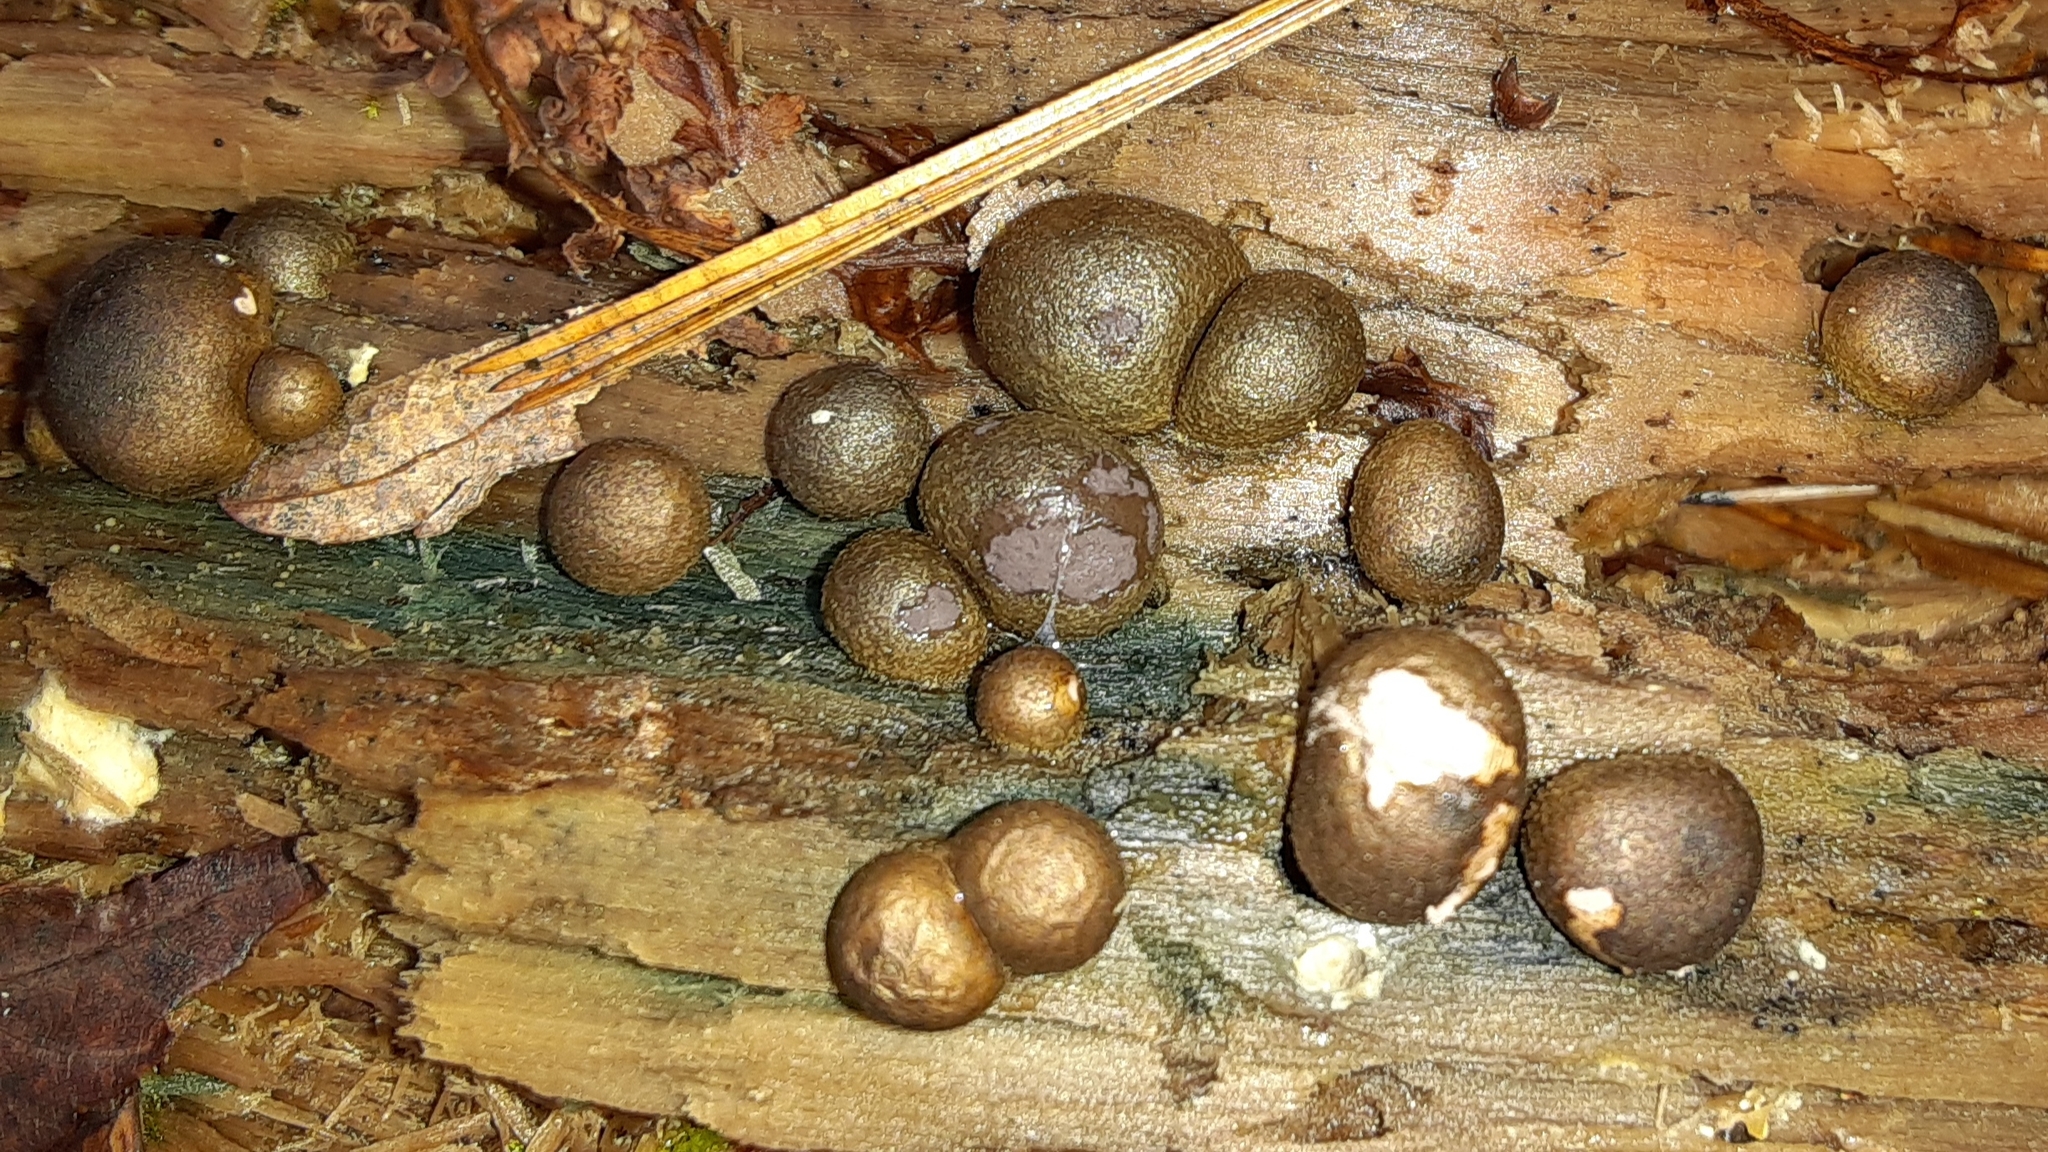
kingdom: Protozoa
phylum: Mycetozoa
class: Myxomycetes
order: Cribrariales
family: Tubiferaceae
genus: Lycogala
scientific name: Lycogala epidendrum
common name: Wolf's milk
